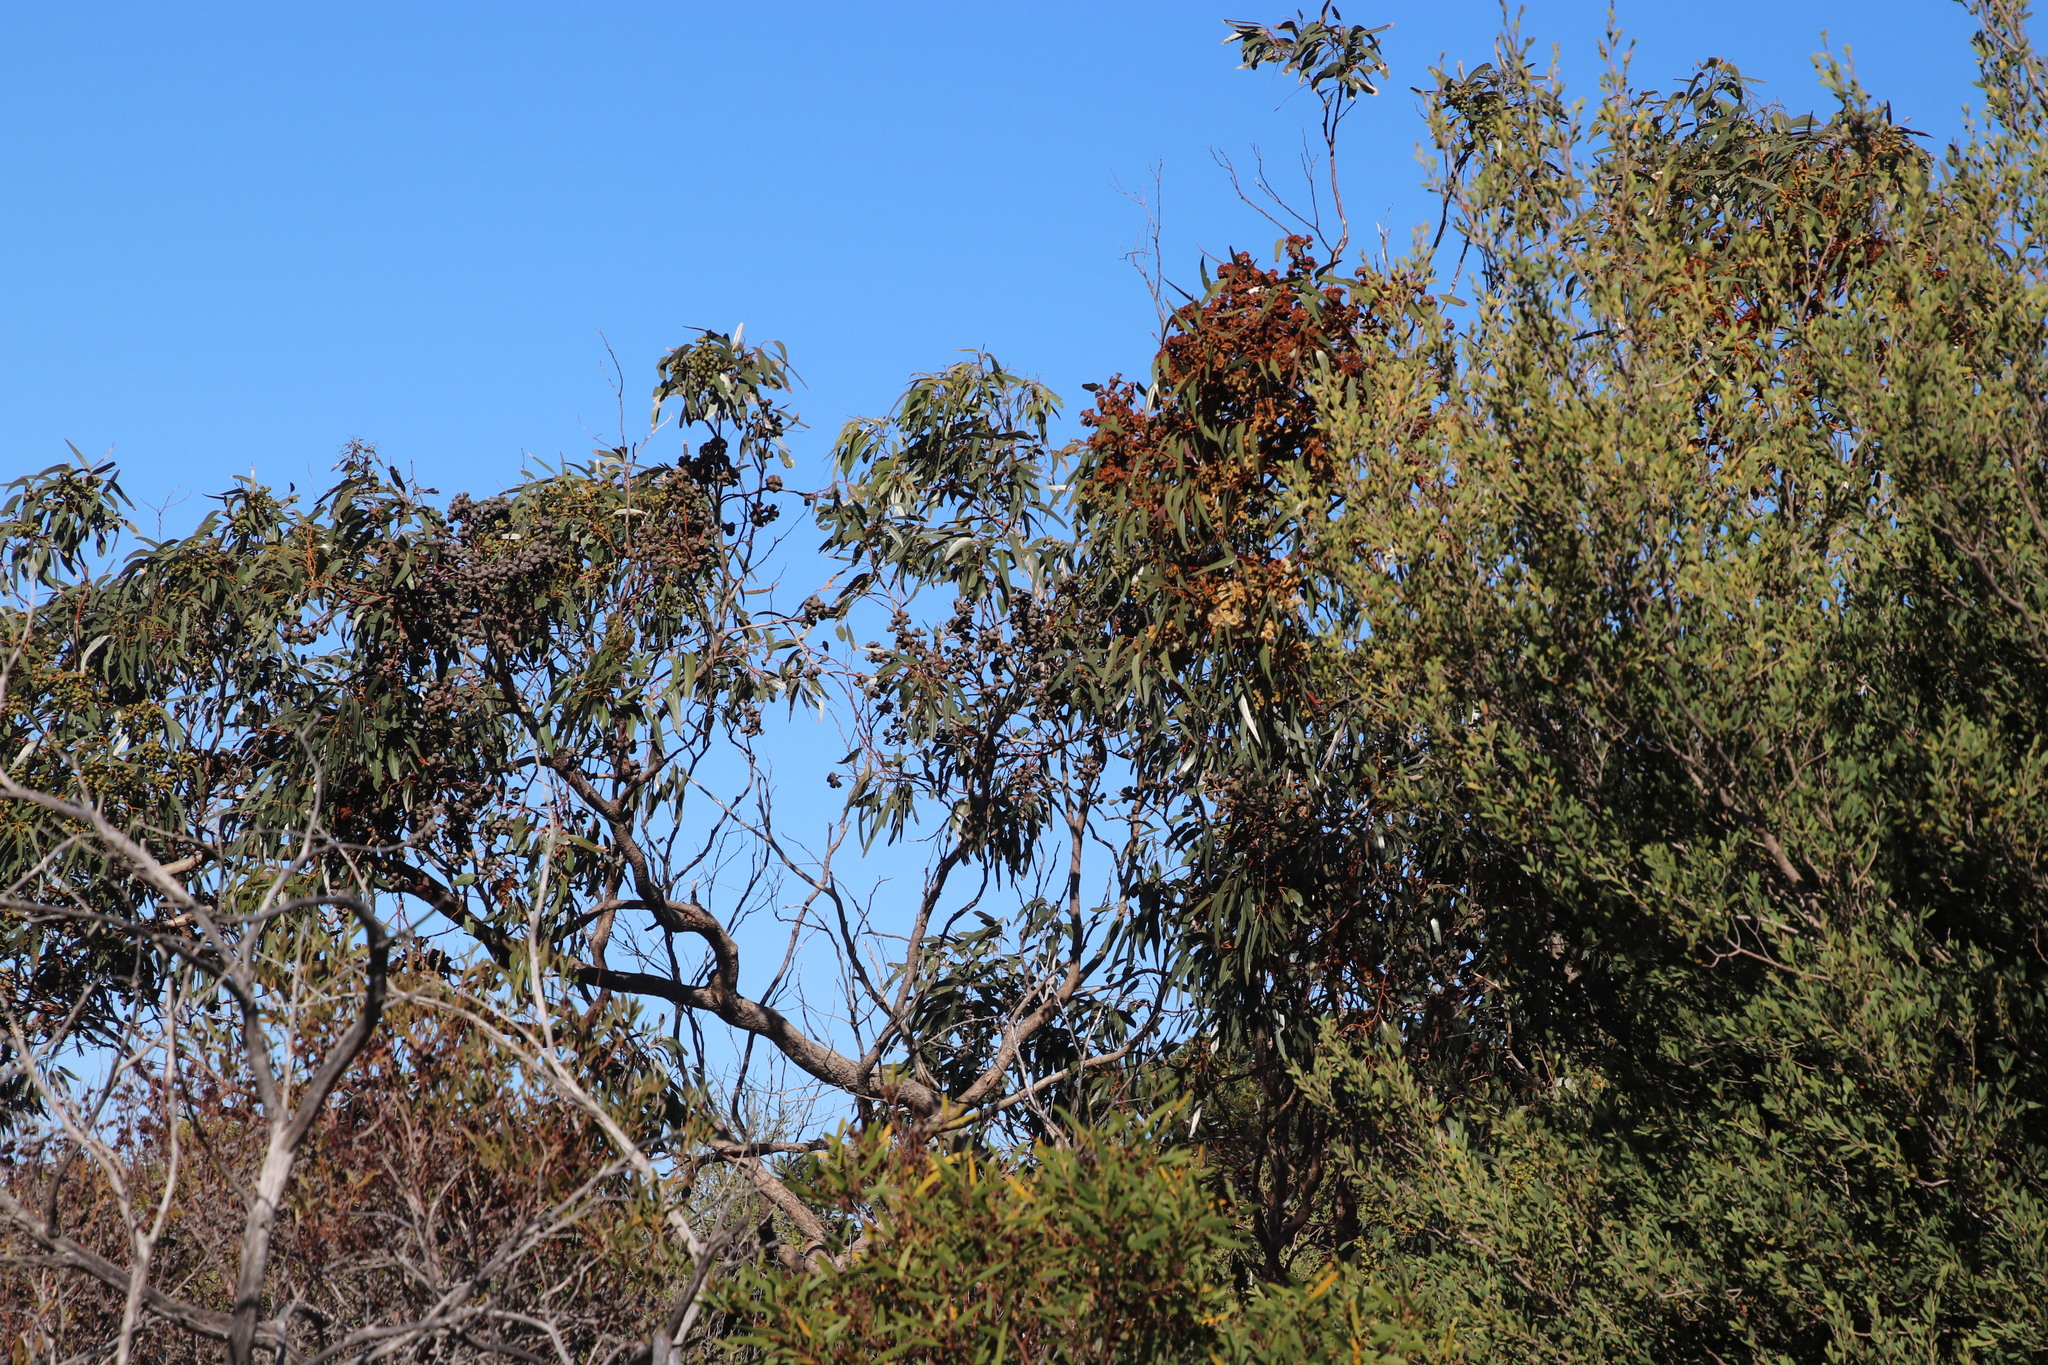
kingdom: Plantae
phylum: Tracheophyta
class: Magnoliopsida
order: Myrtales
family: Myrtaceae
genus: Eucalyptus
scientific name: Eucalyptus gomphocephala
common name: Tuart
